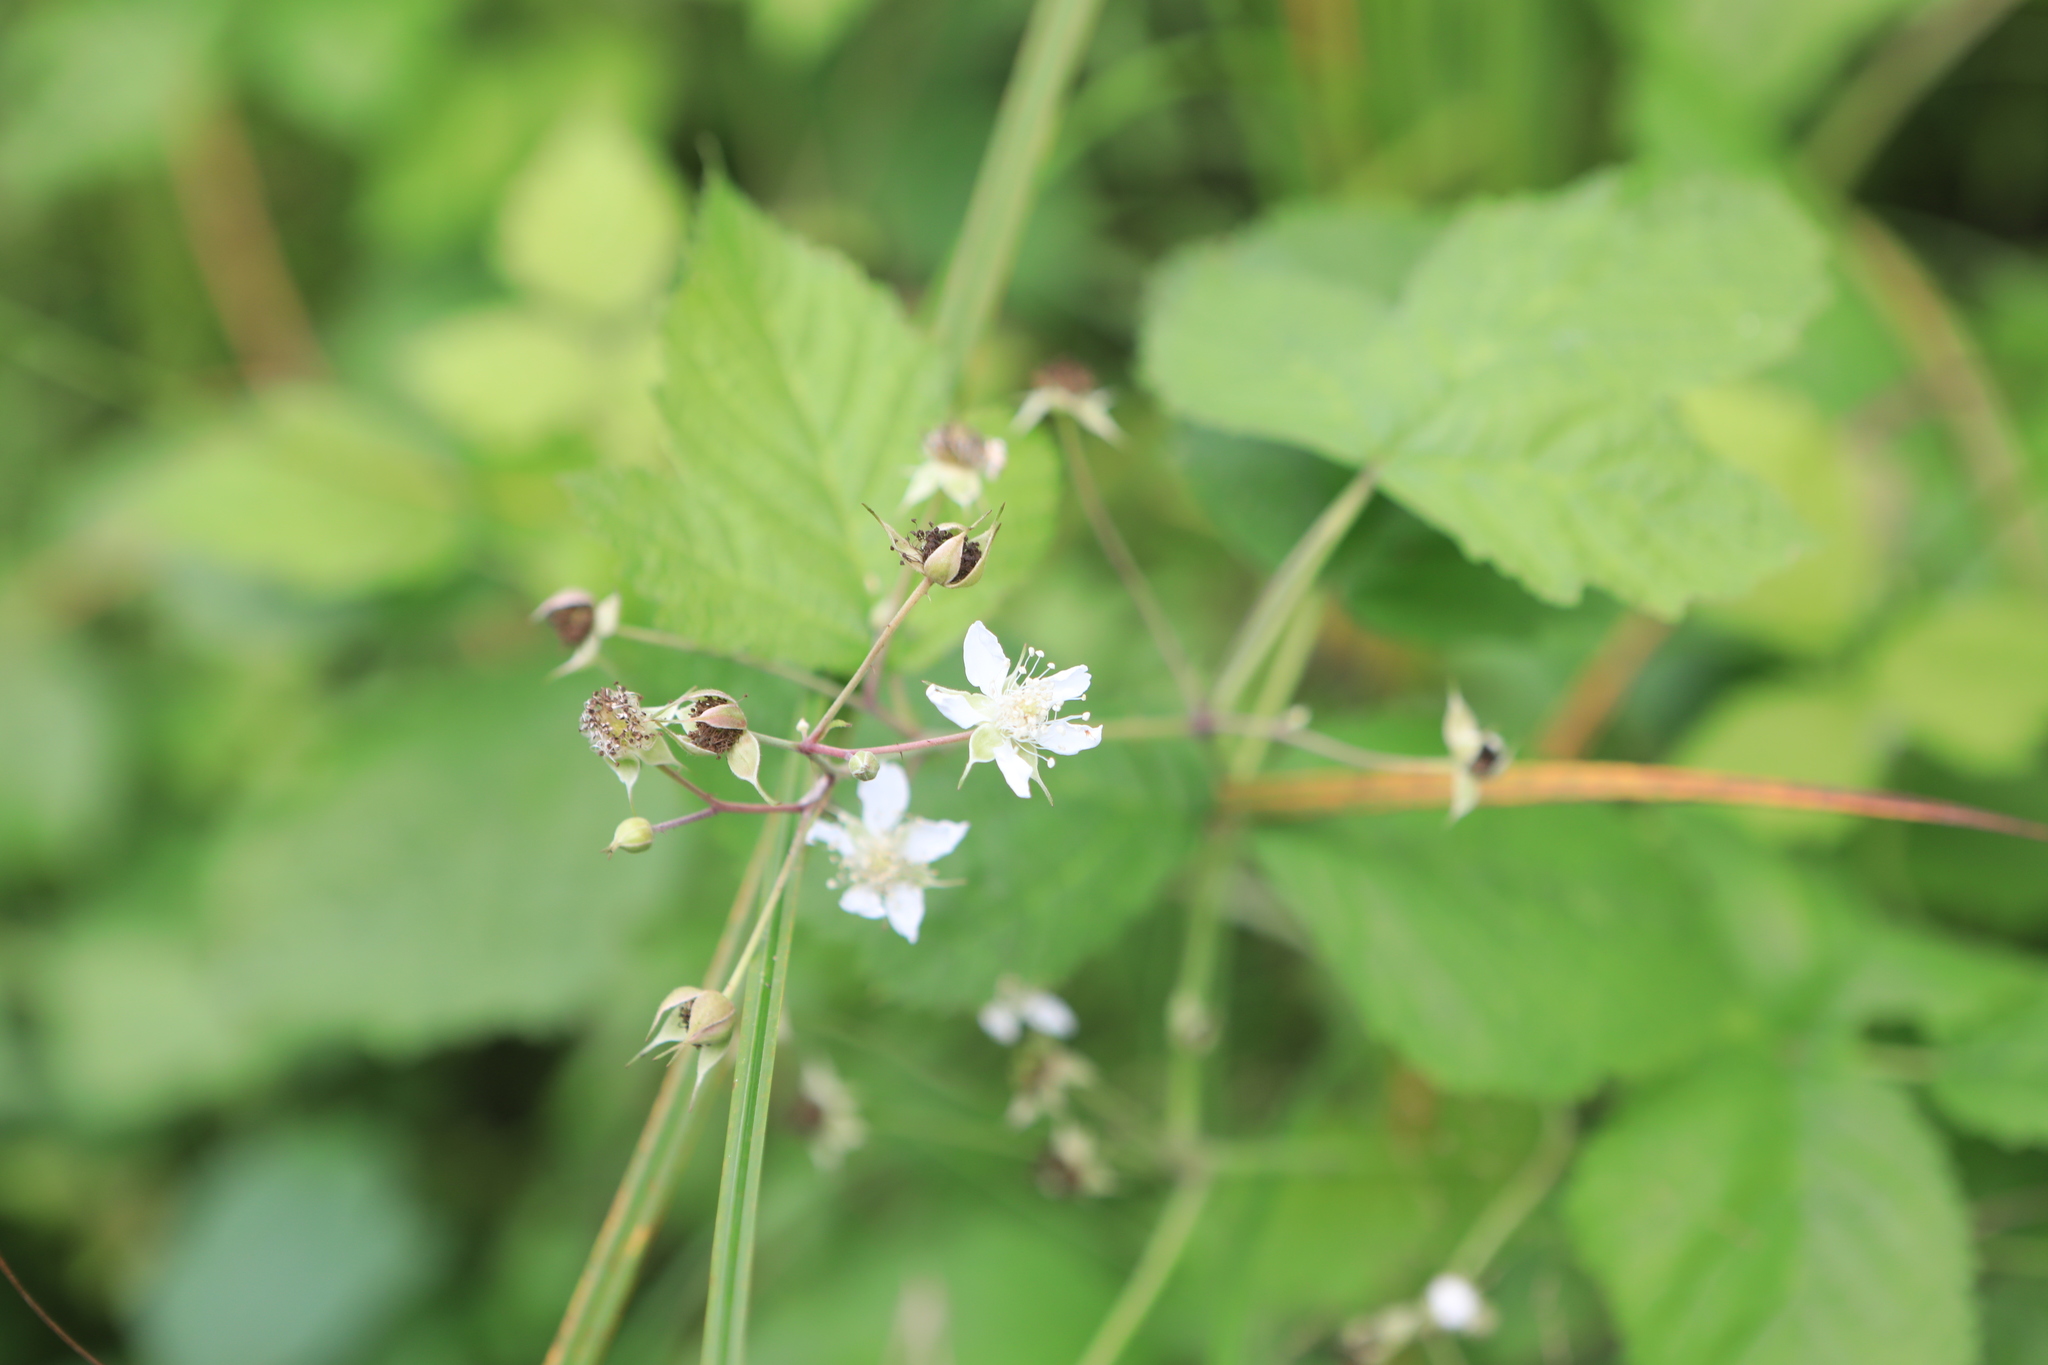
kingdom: Plantae
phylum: Tracheophyta
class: Magnoliopsida
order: Rosales
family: Rosaceae
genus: Rubus
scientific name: Rubus caesius
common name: Dewberry
